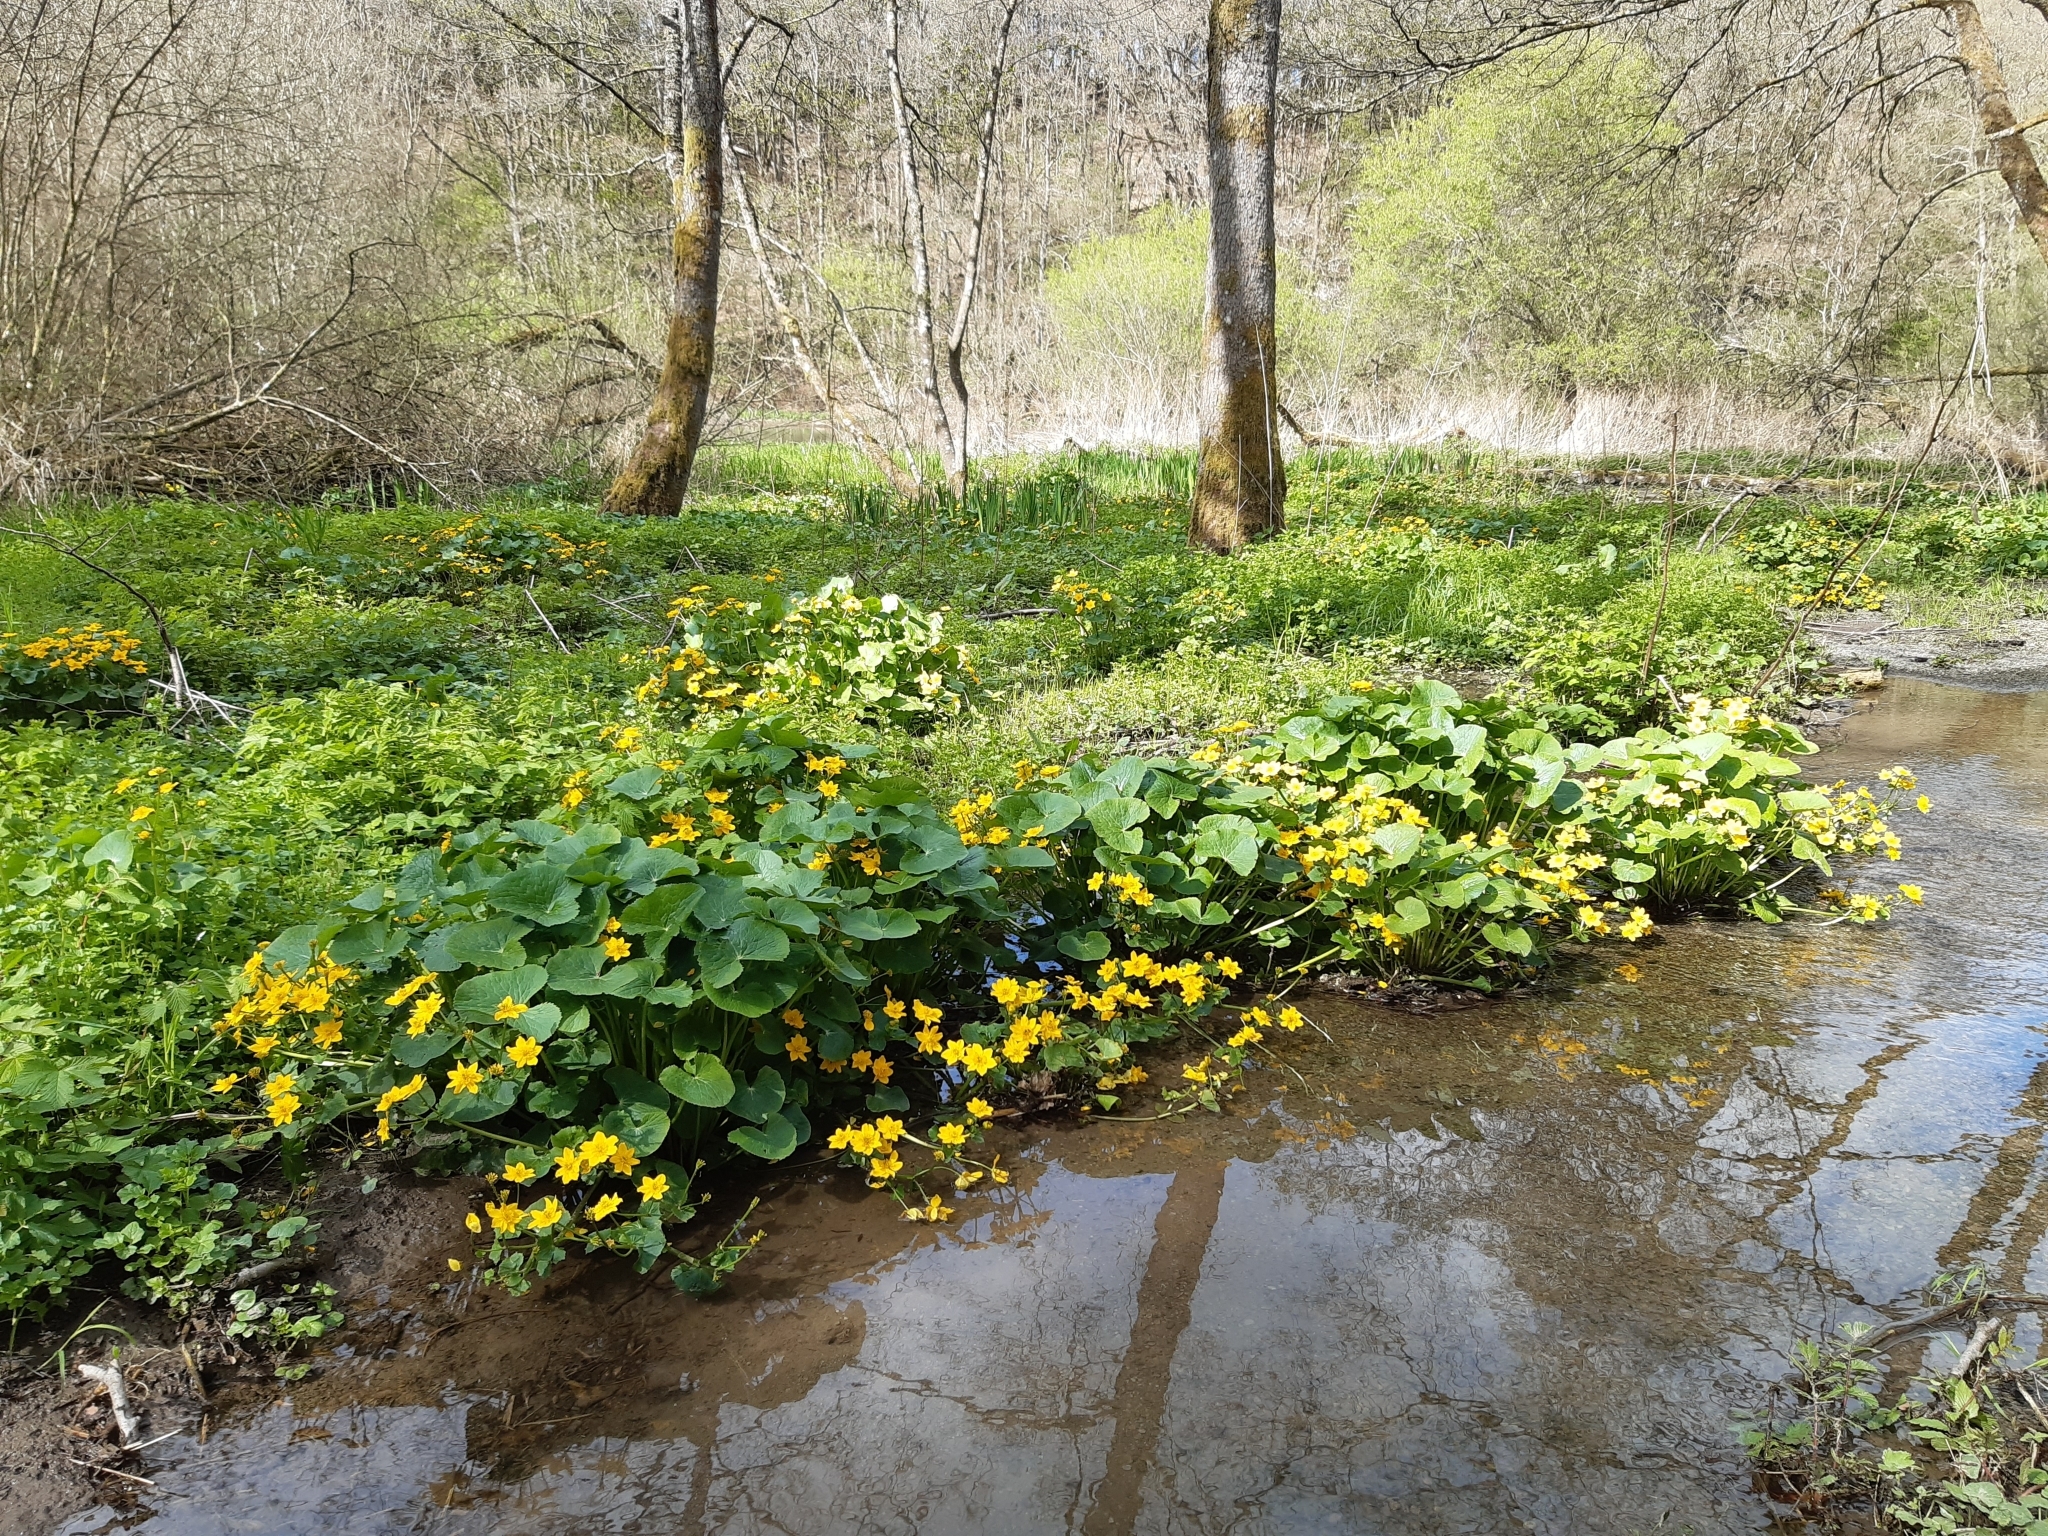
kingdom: Plantae
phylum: Tracheophyta
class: Magnoliopsida
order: Ranunculales
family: Ranunculaceae
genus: Caltha
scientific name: Caltha palustris
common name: Marsh marigold
